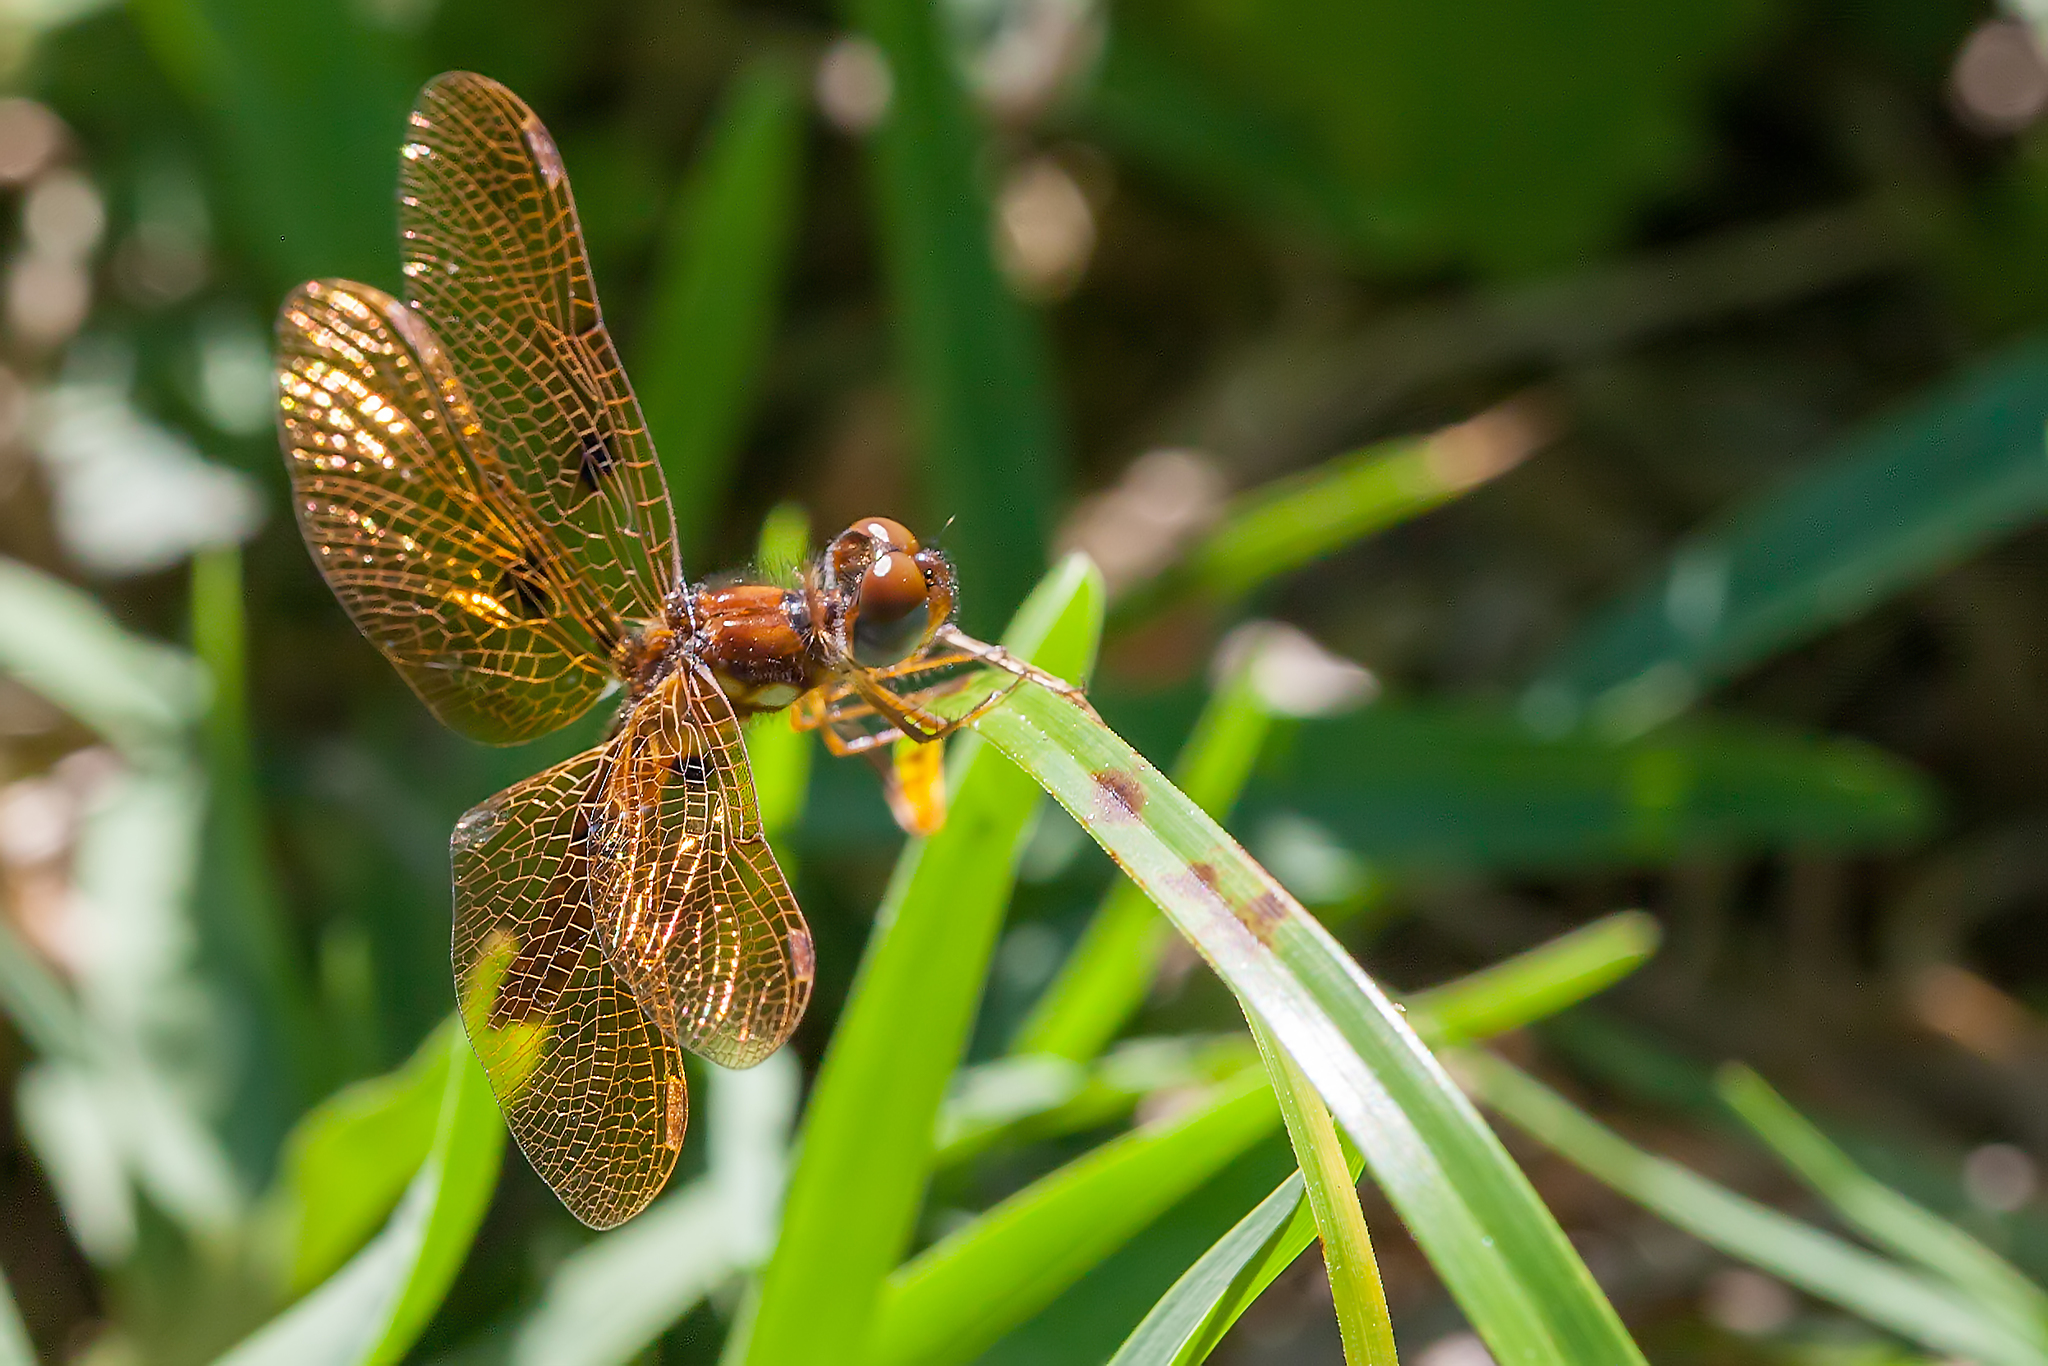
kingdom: Animalia
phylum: Arthropoda
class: Insecta
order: Odonata
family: Libellulidae
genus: Perithemis
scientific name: Perithemis tenera
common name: Eastern amberwing
